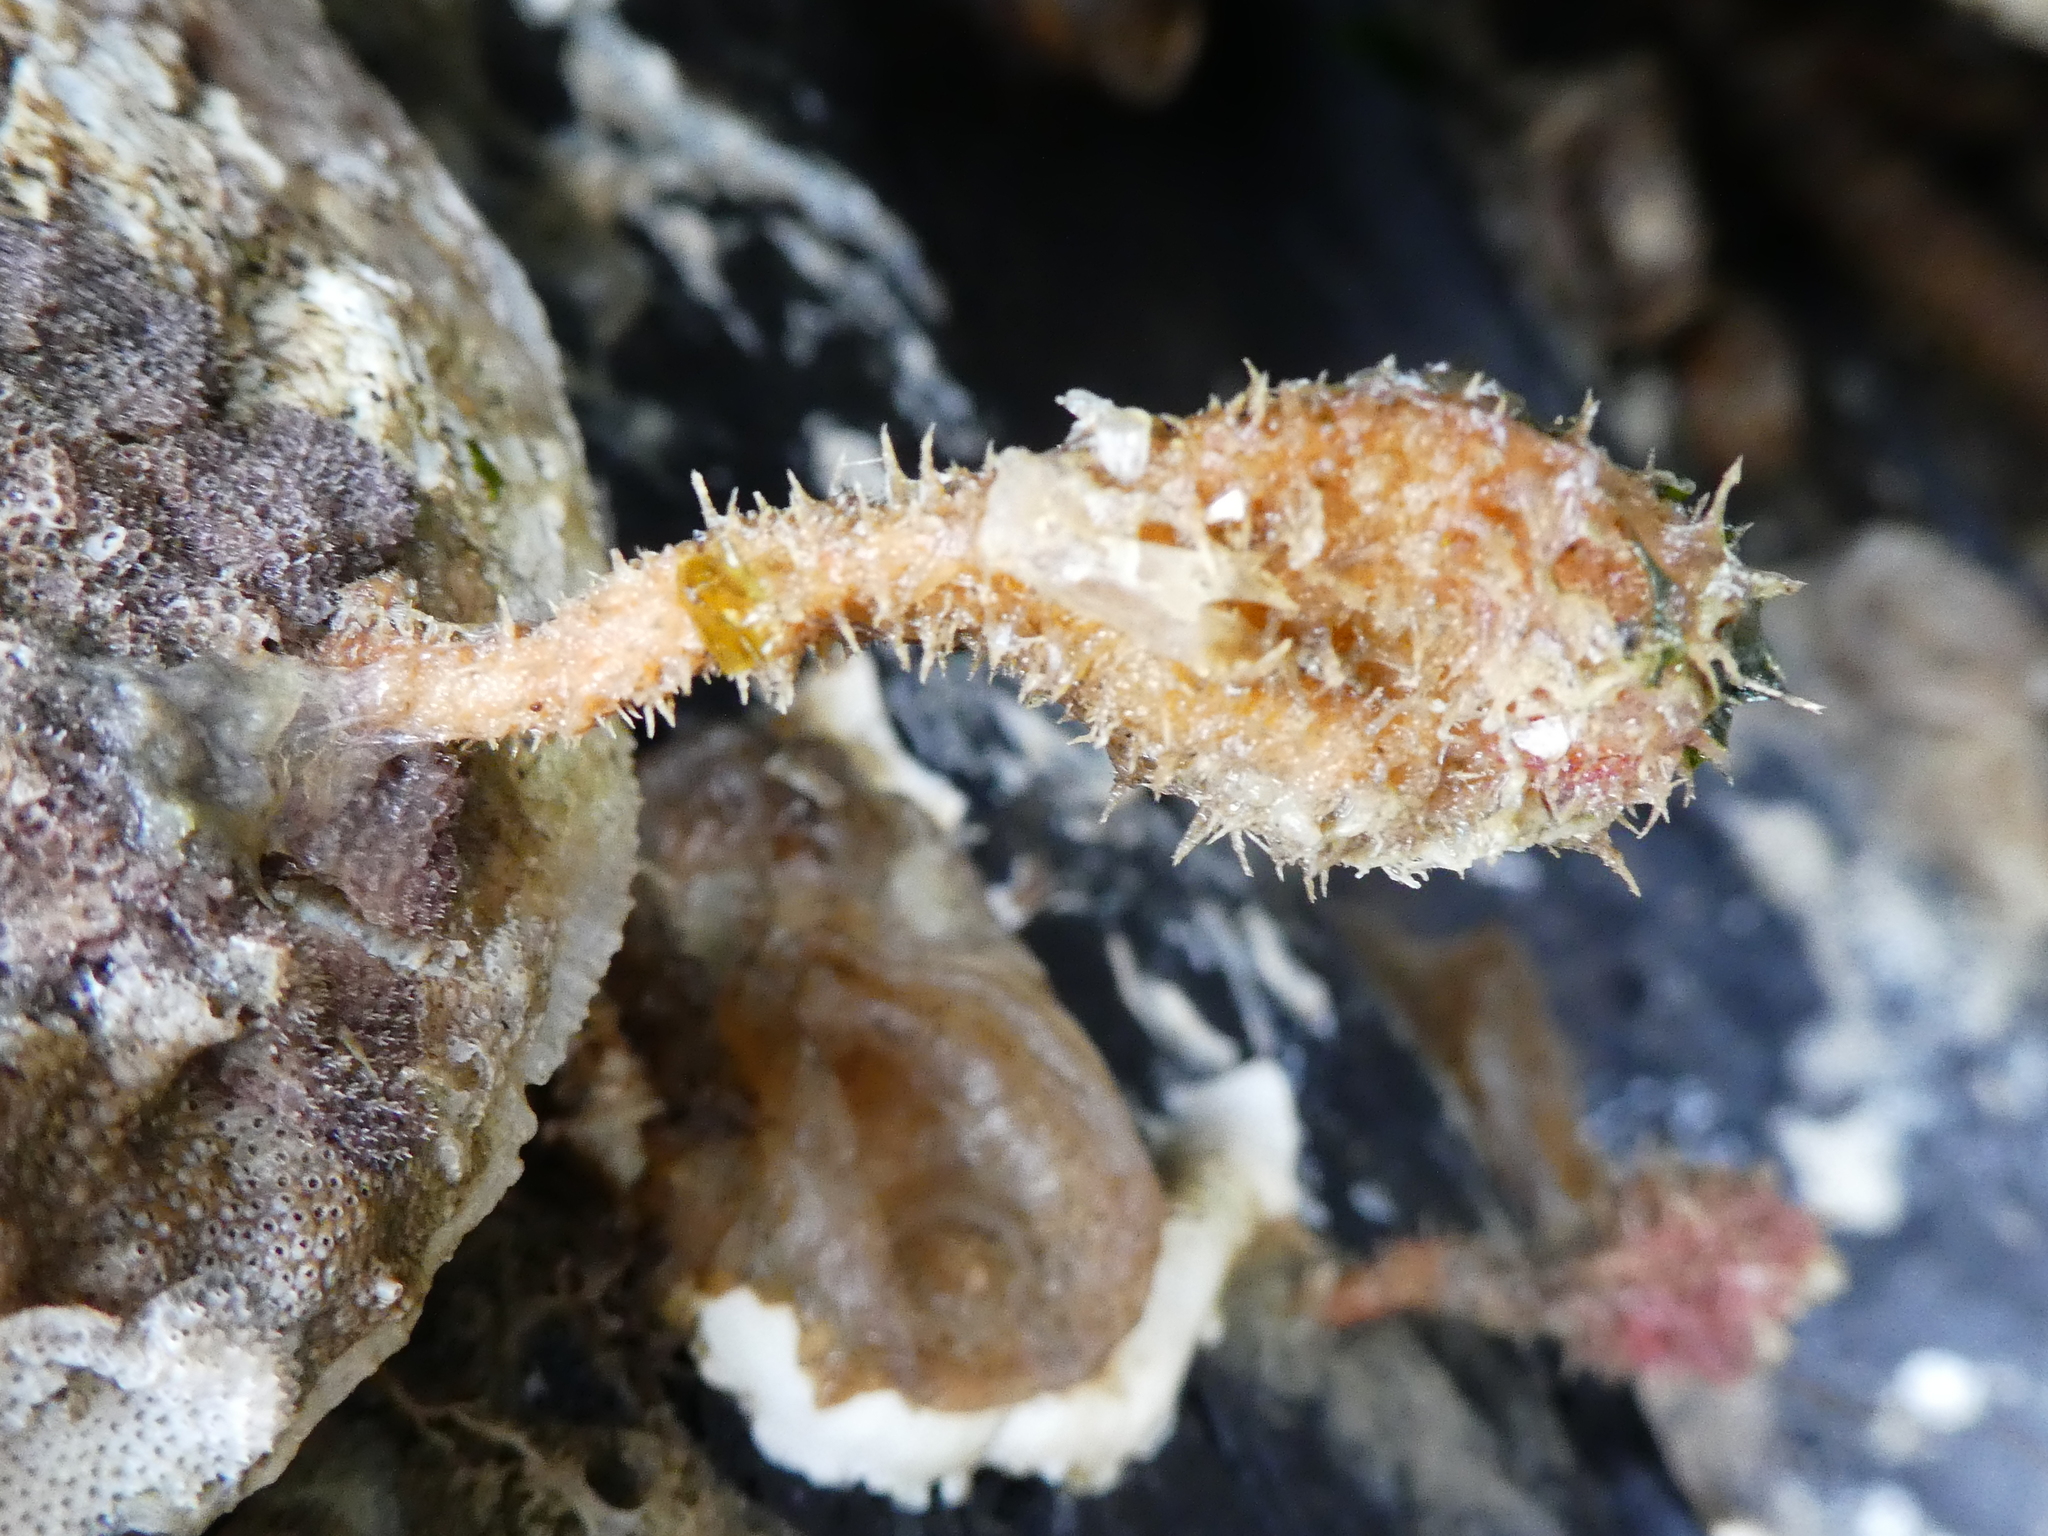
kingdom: Animalia
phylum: Chordata
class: Ascidiacea
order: Stolidobranchia
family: Pyuridae
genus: Boltenia
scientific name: Boltenia villosa
